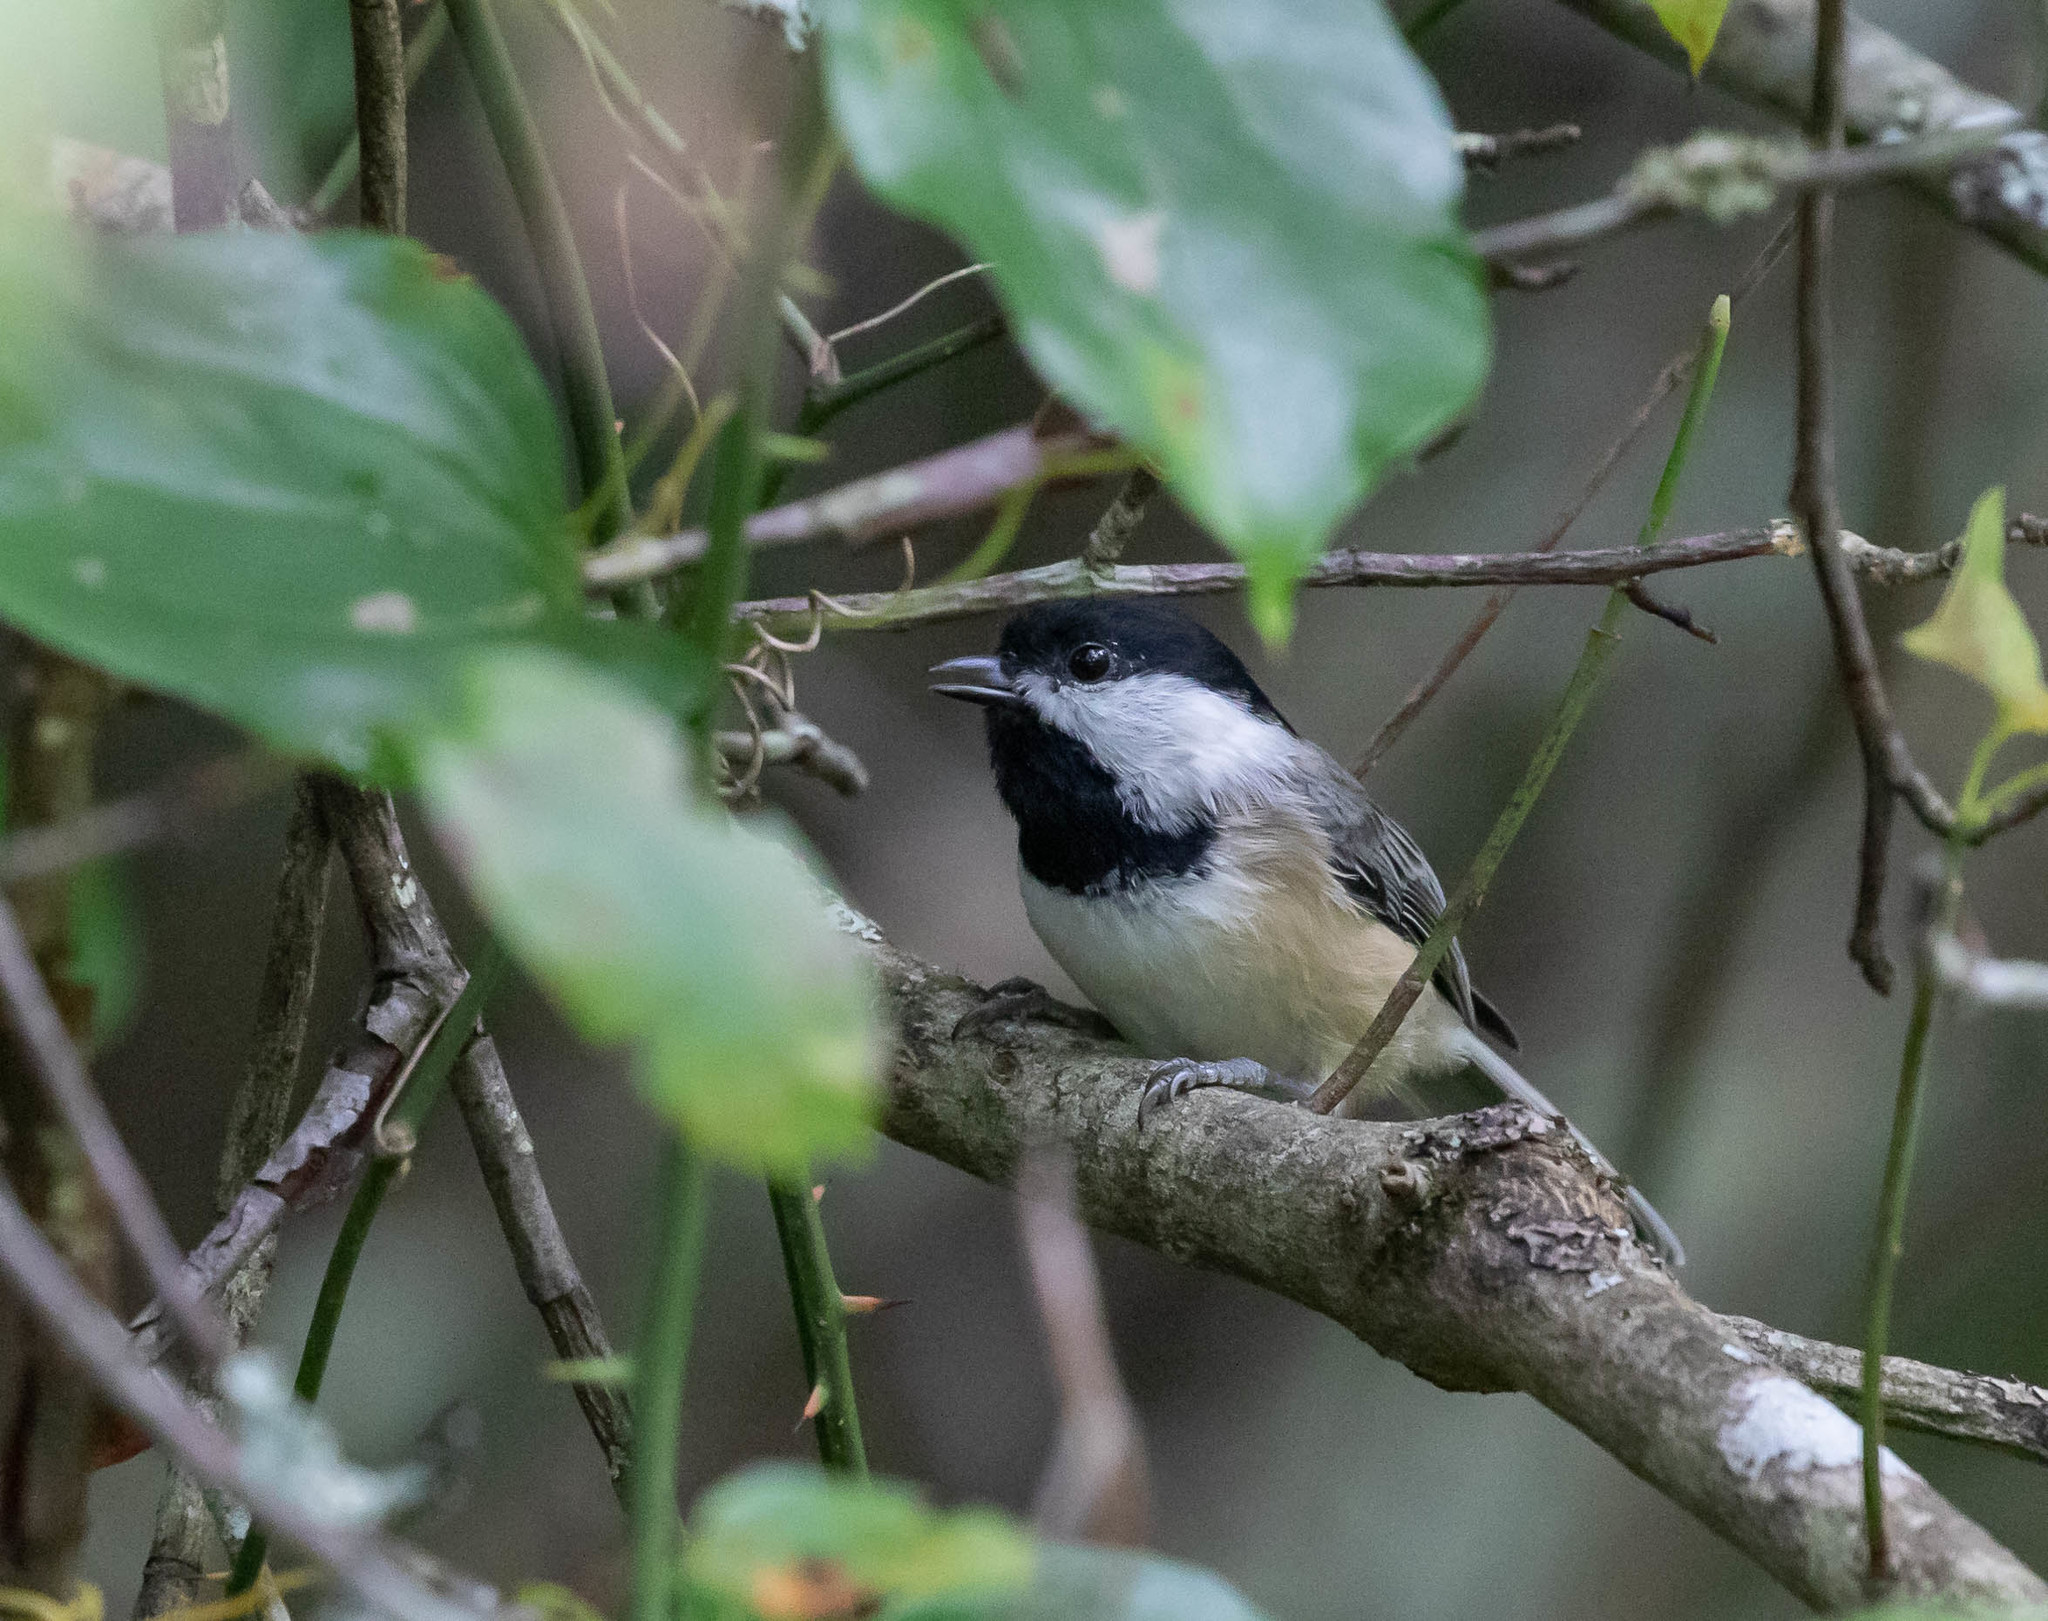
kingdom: Animalia
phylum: Chordata
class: Aves
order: Passeriformes
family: Paridae
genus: Poecile
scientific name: Poecile atricapillus
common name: Black-capped chickadee
